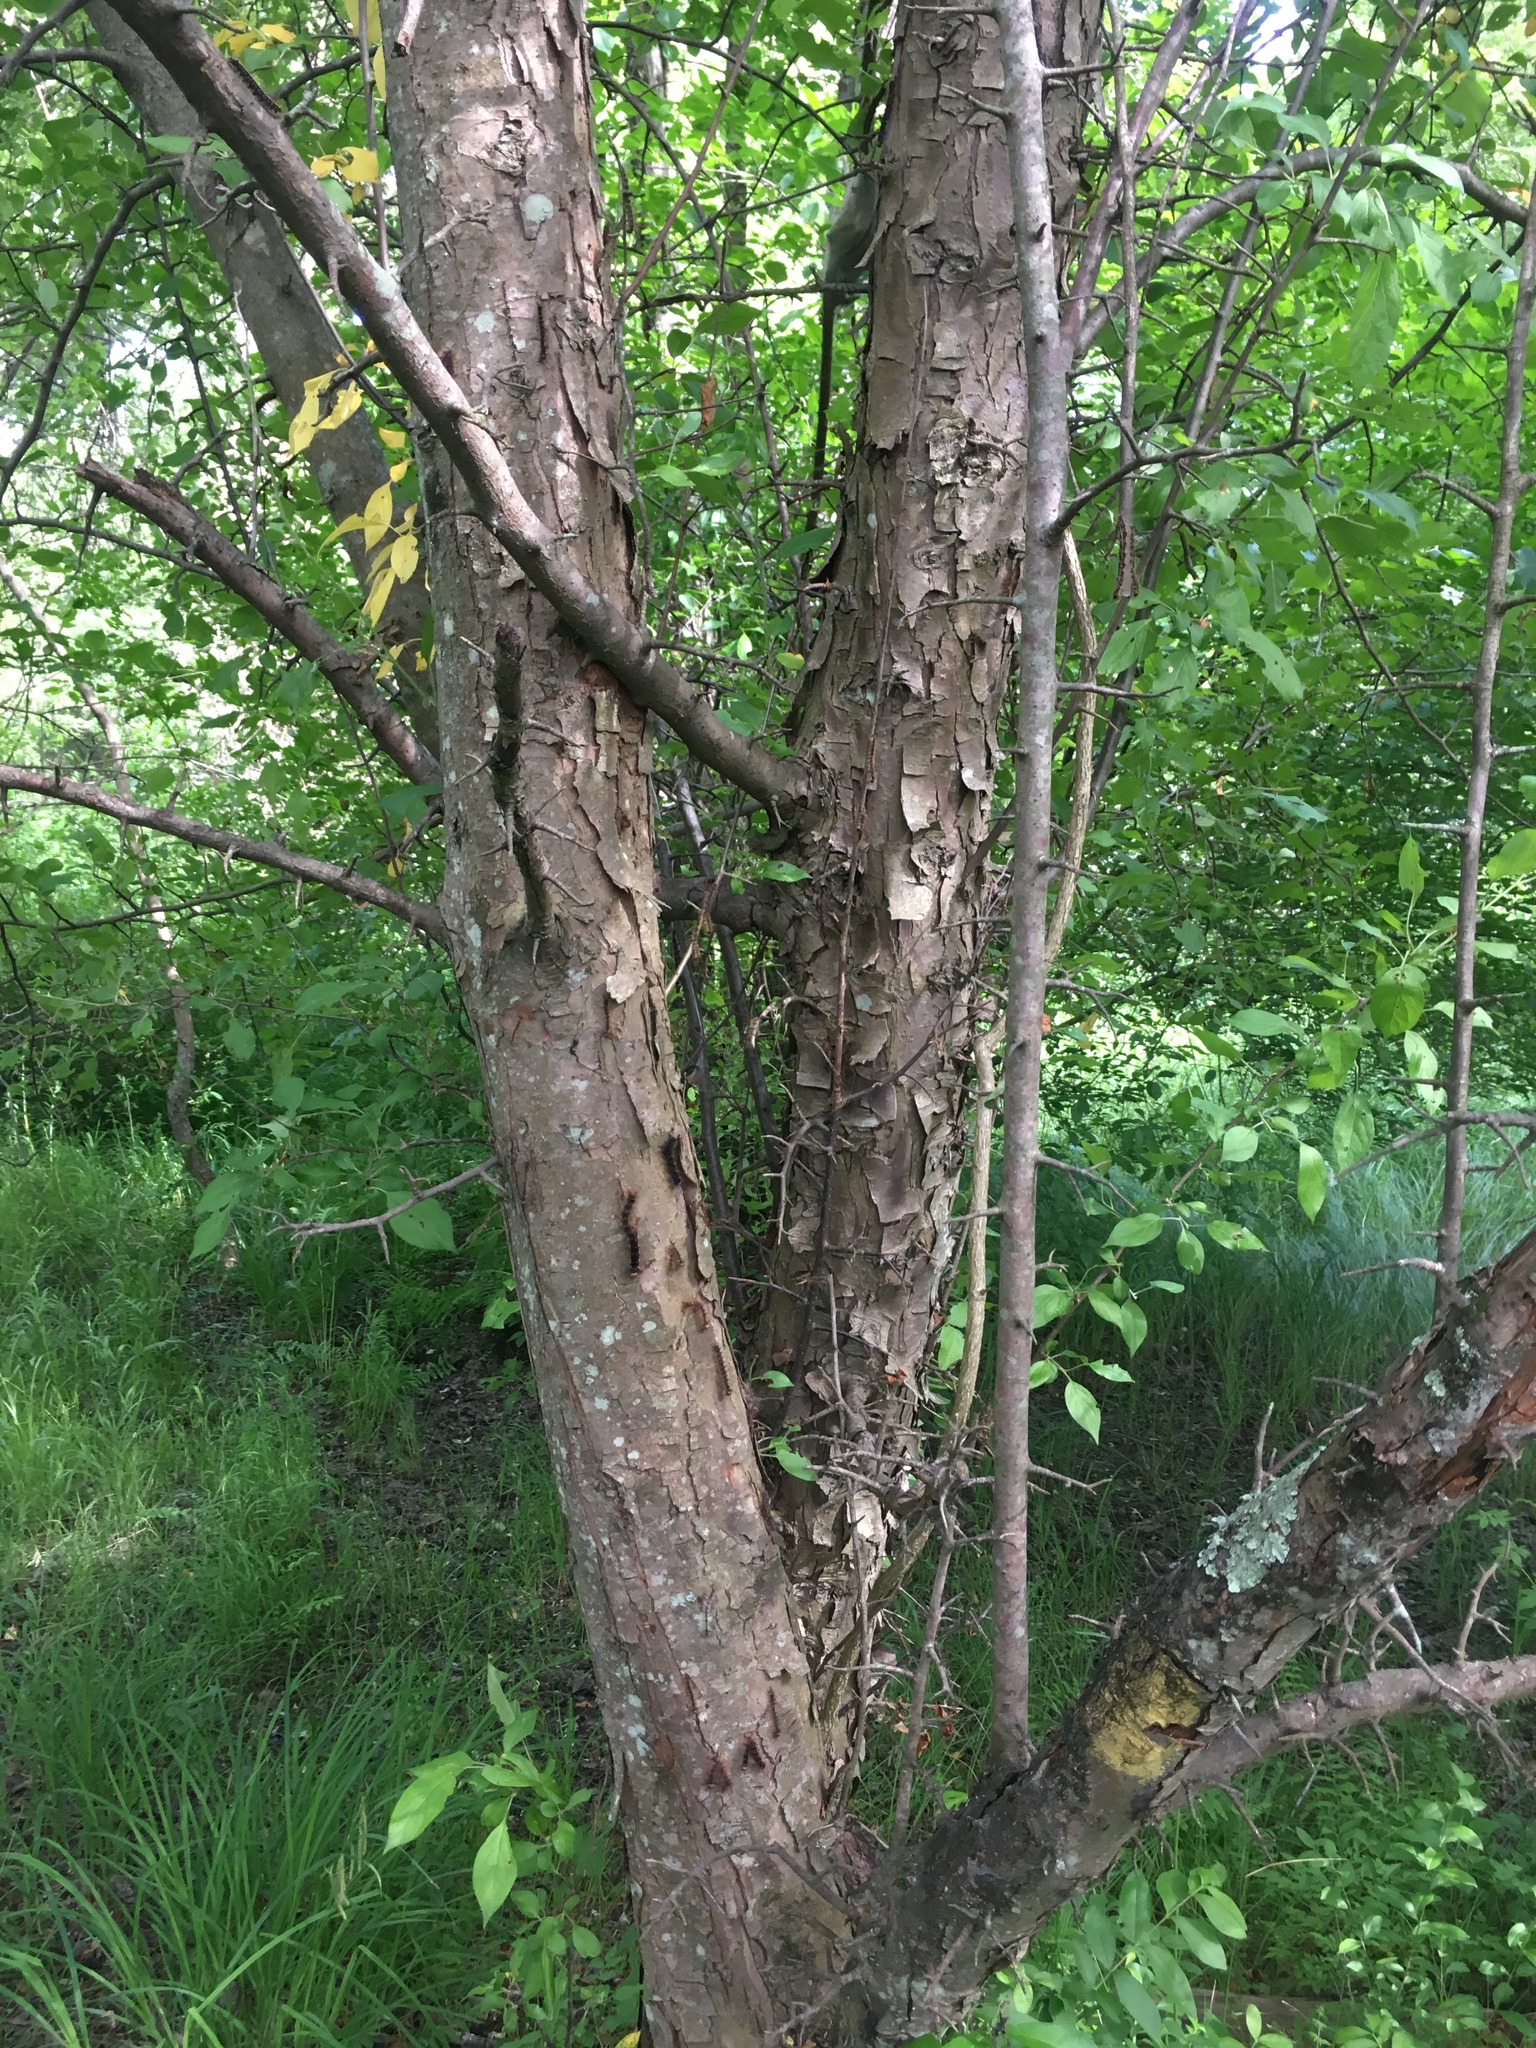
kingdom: Plantae
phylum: Tracheophyta
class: Magnoliopsida
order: Rosales
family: Rosaceae
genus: Malus
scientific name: Malus domestica
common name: Apple
